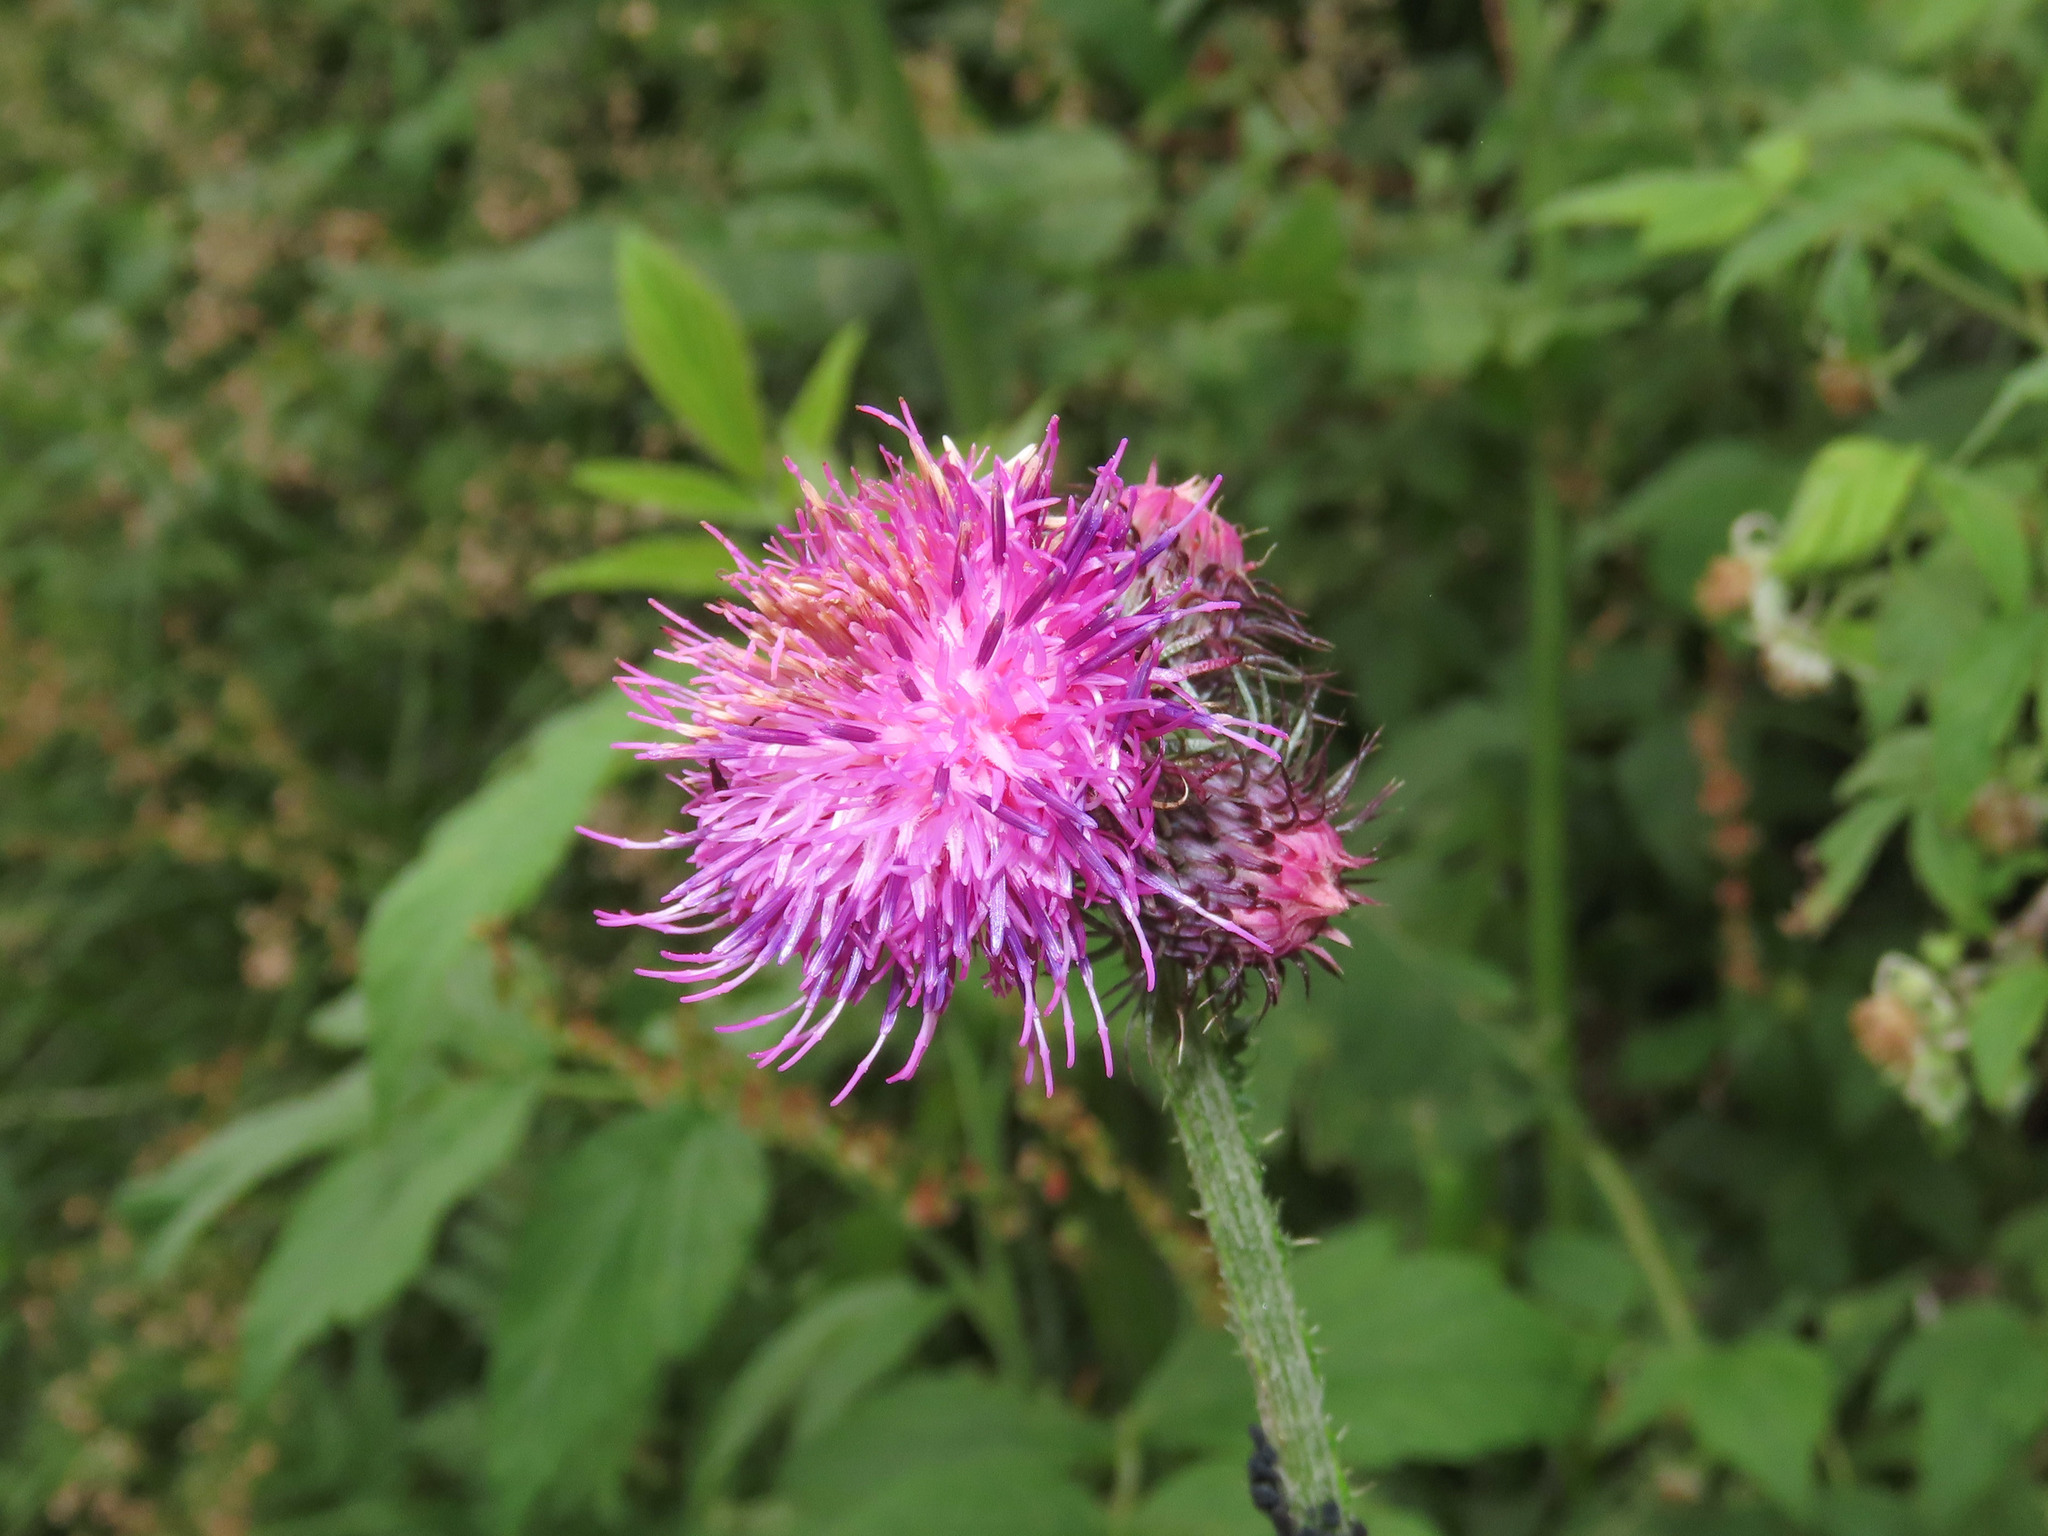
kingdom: Plantae
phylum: Tracheophyta
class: Magnoliopsida
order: Asterales
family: Asteraceae
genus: Carduus
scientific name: Carduus personata
